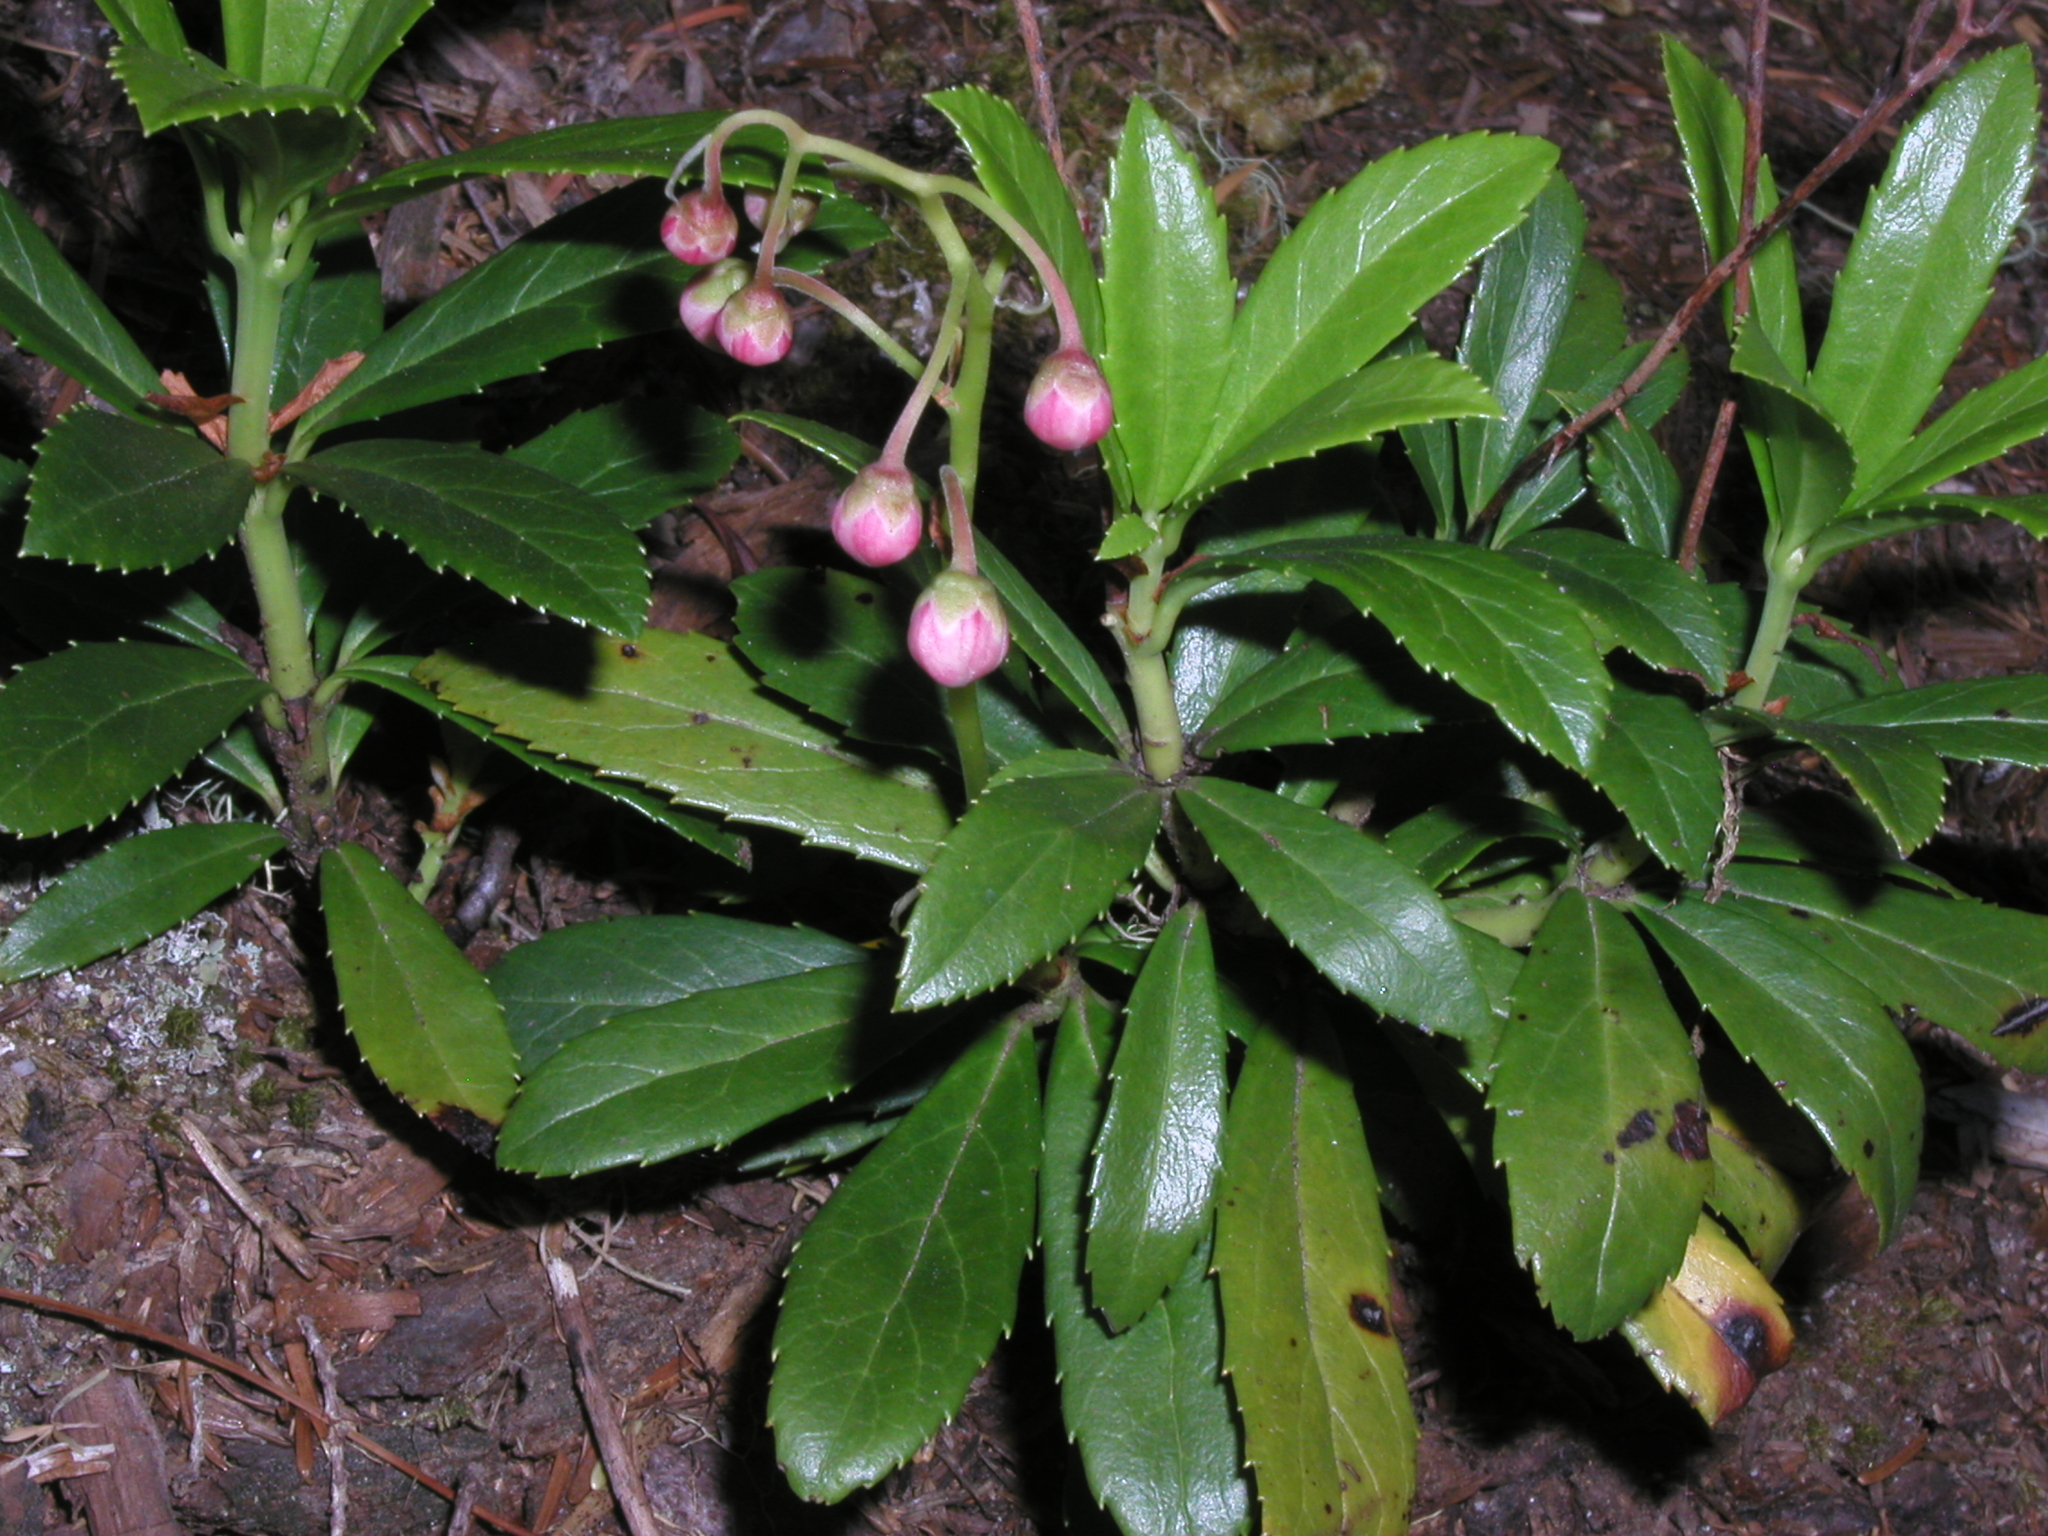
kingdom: Plantae
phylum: Tracheophyta
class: Magnoliopsida
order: Ericales
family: Ericaceae
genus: Chimaphila
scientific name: Chimaphila umbellata
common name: Pipsissewa
